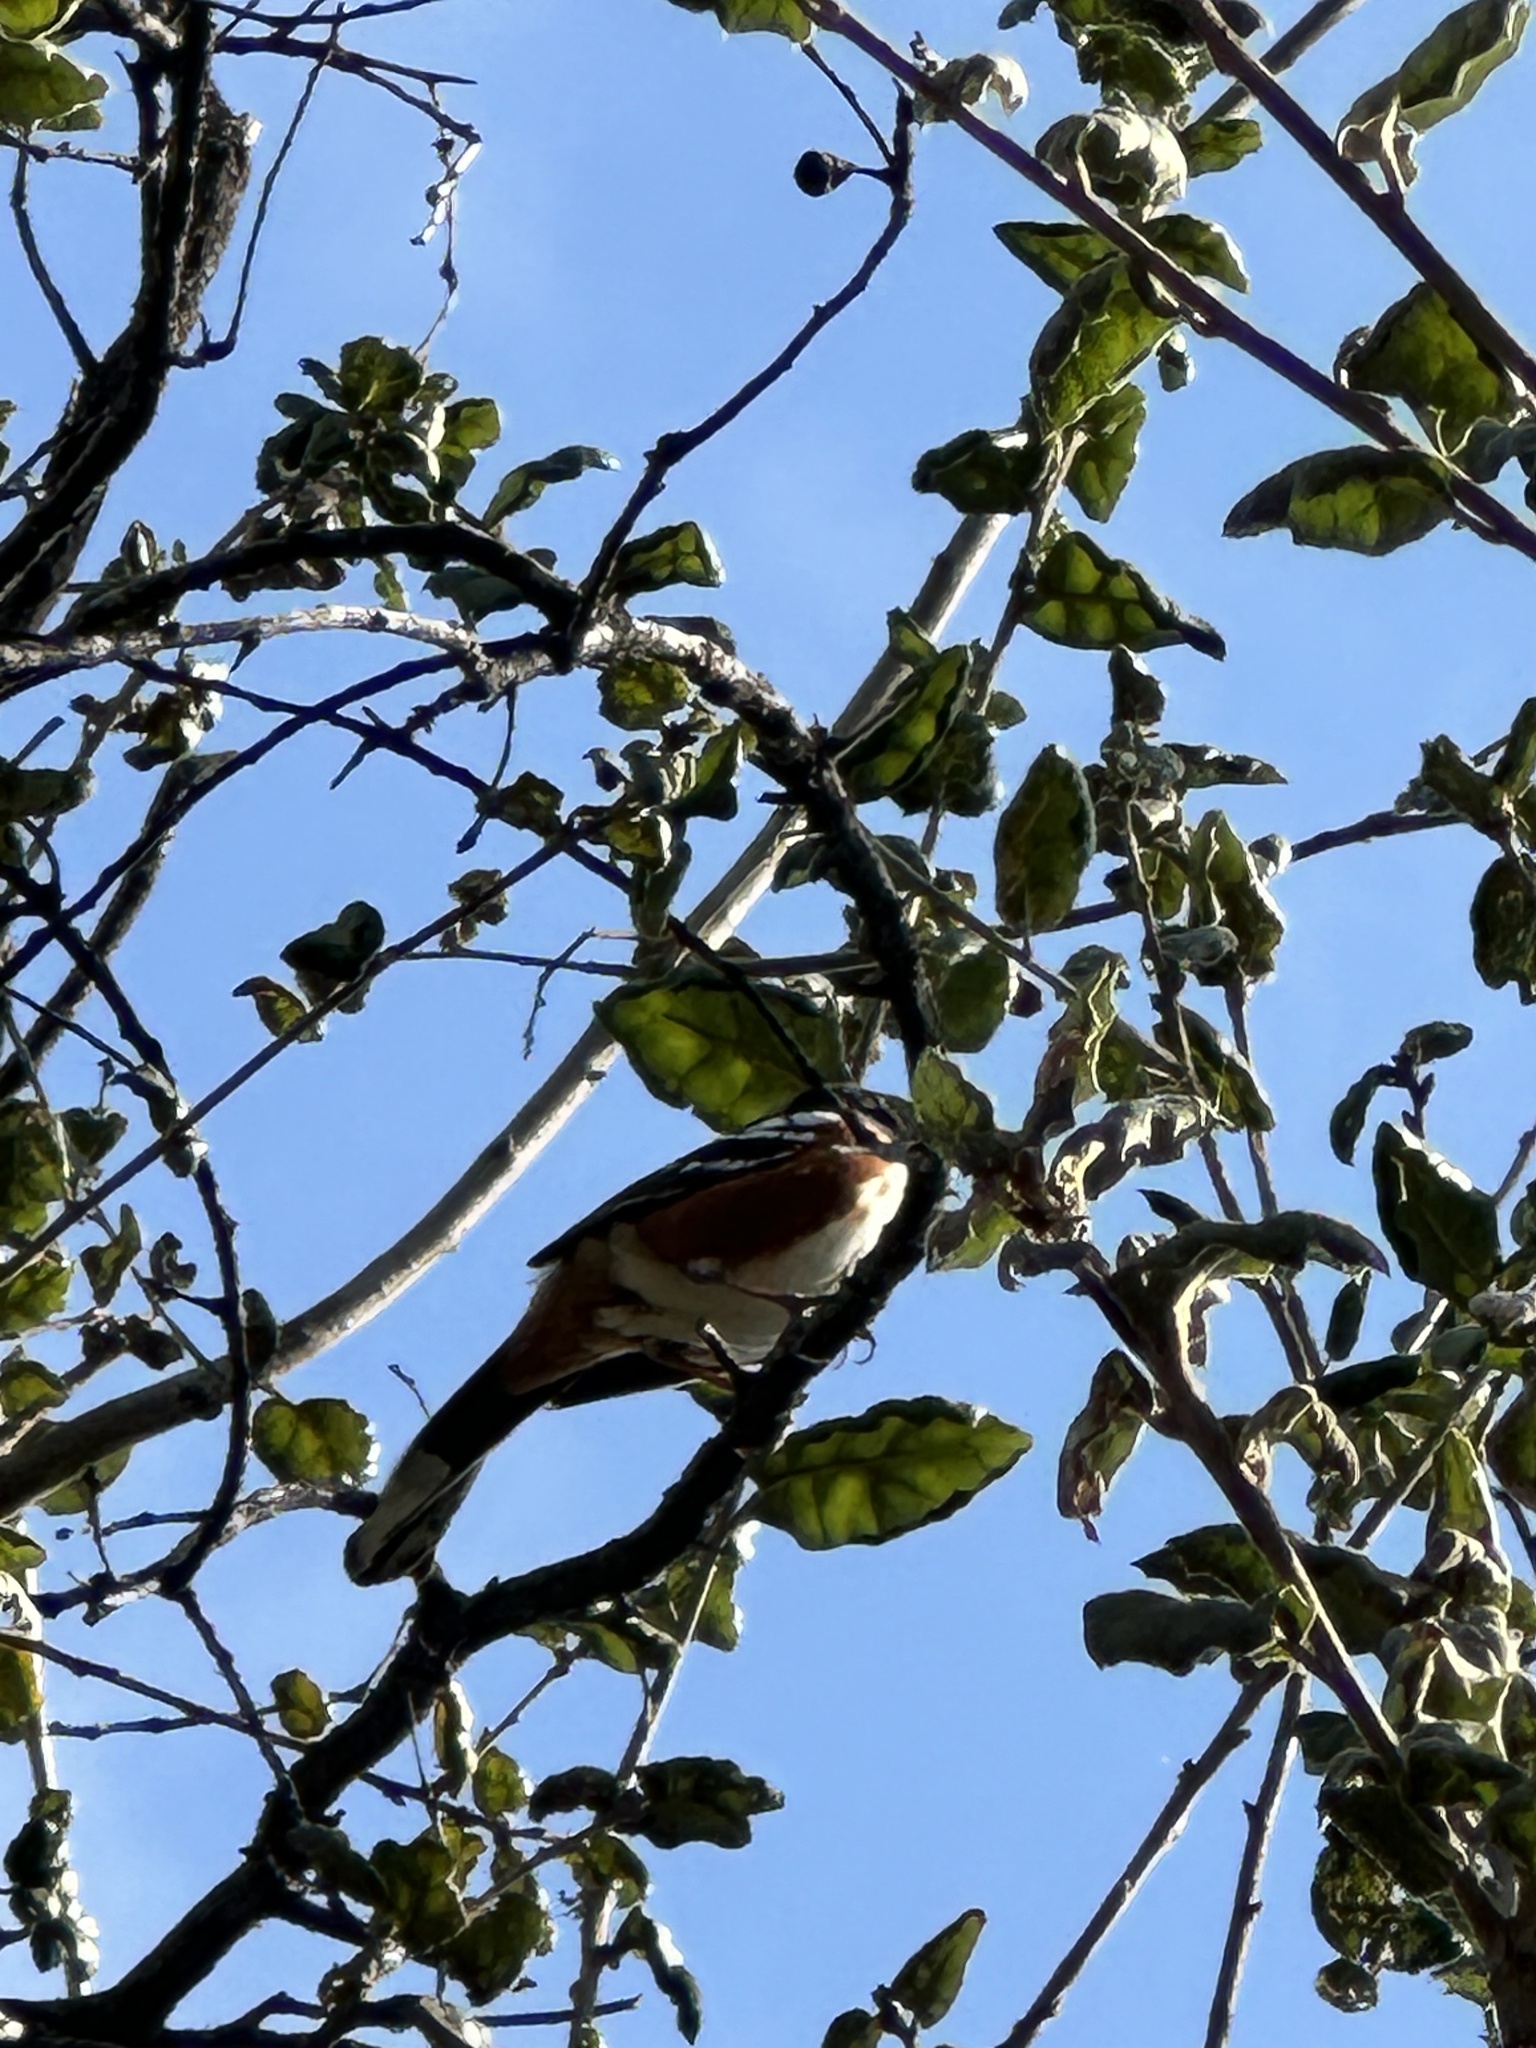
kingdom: Animalia
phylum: Chordata
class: Aves
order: Passeriformes
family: Passerellidae
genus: Pipilo
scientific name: Pipilo maculatus
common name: Spotted towhee
